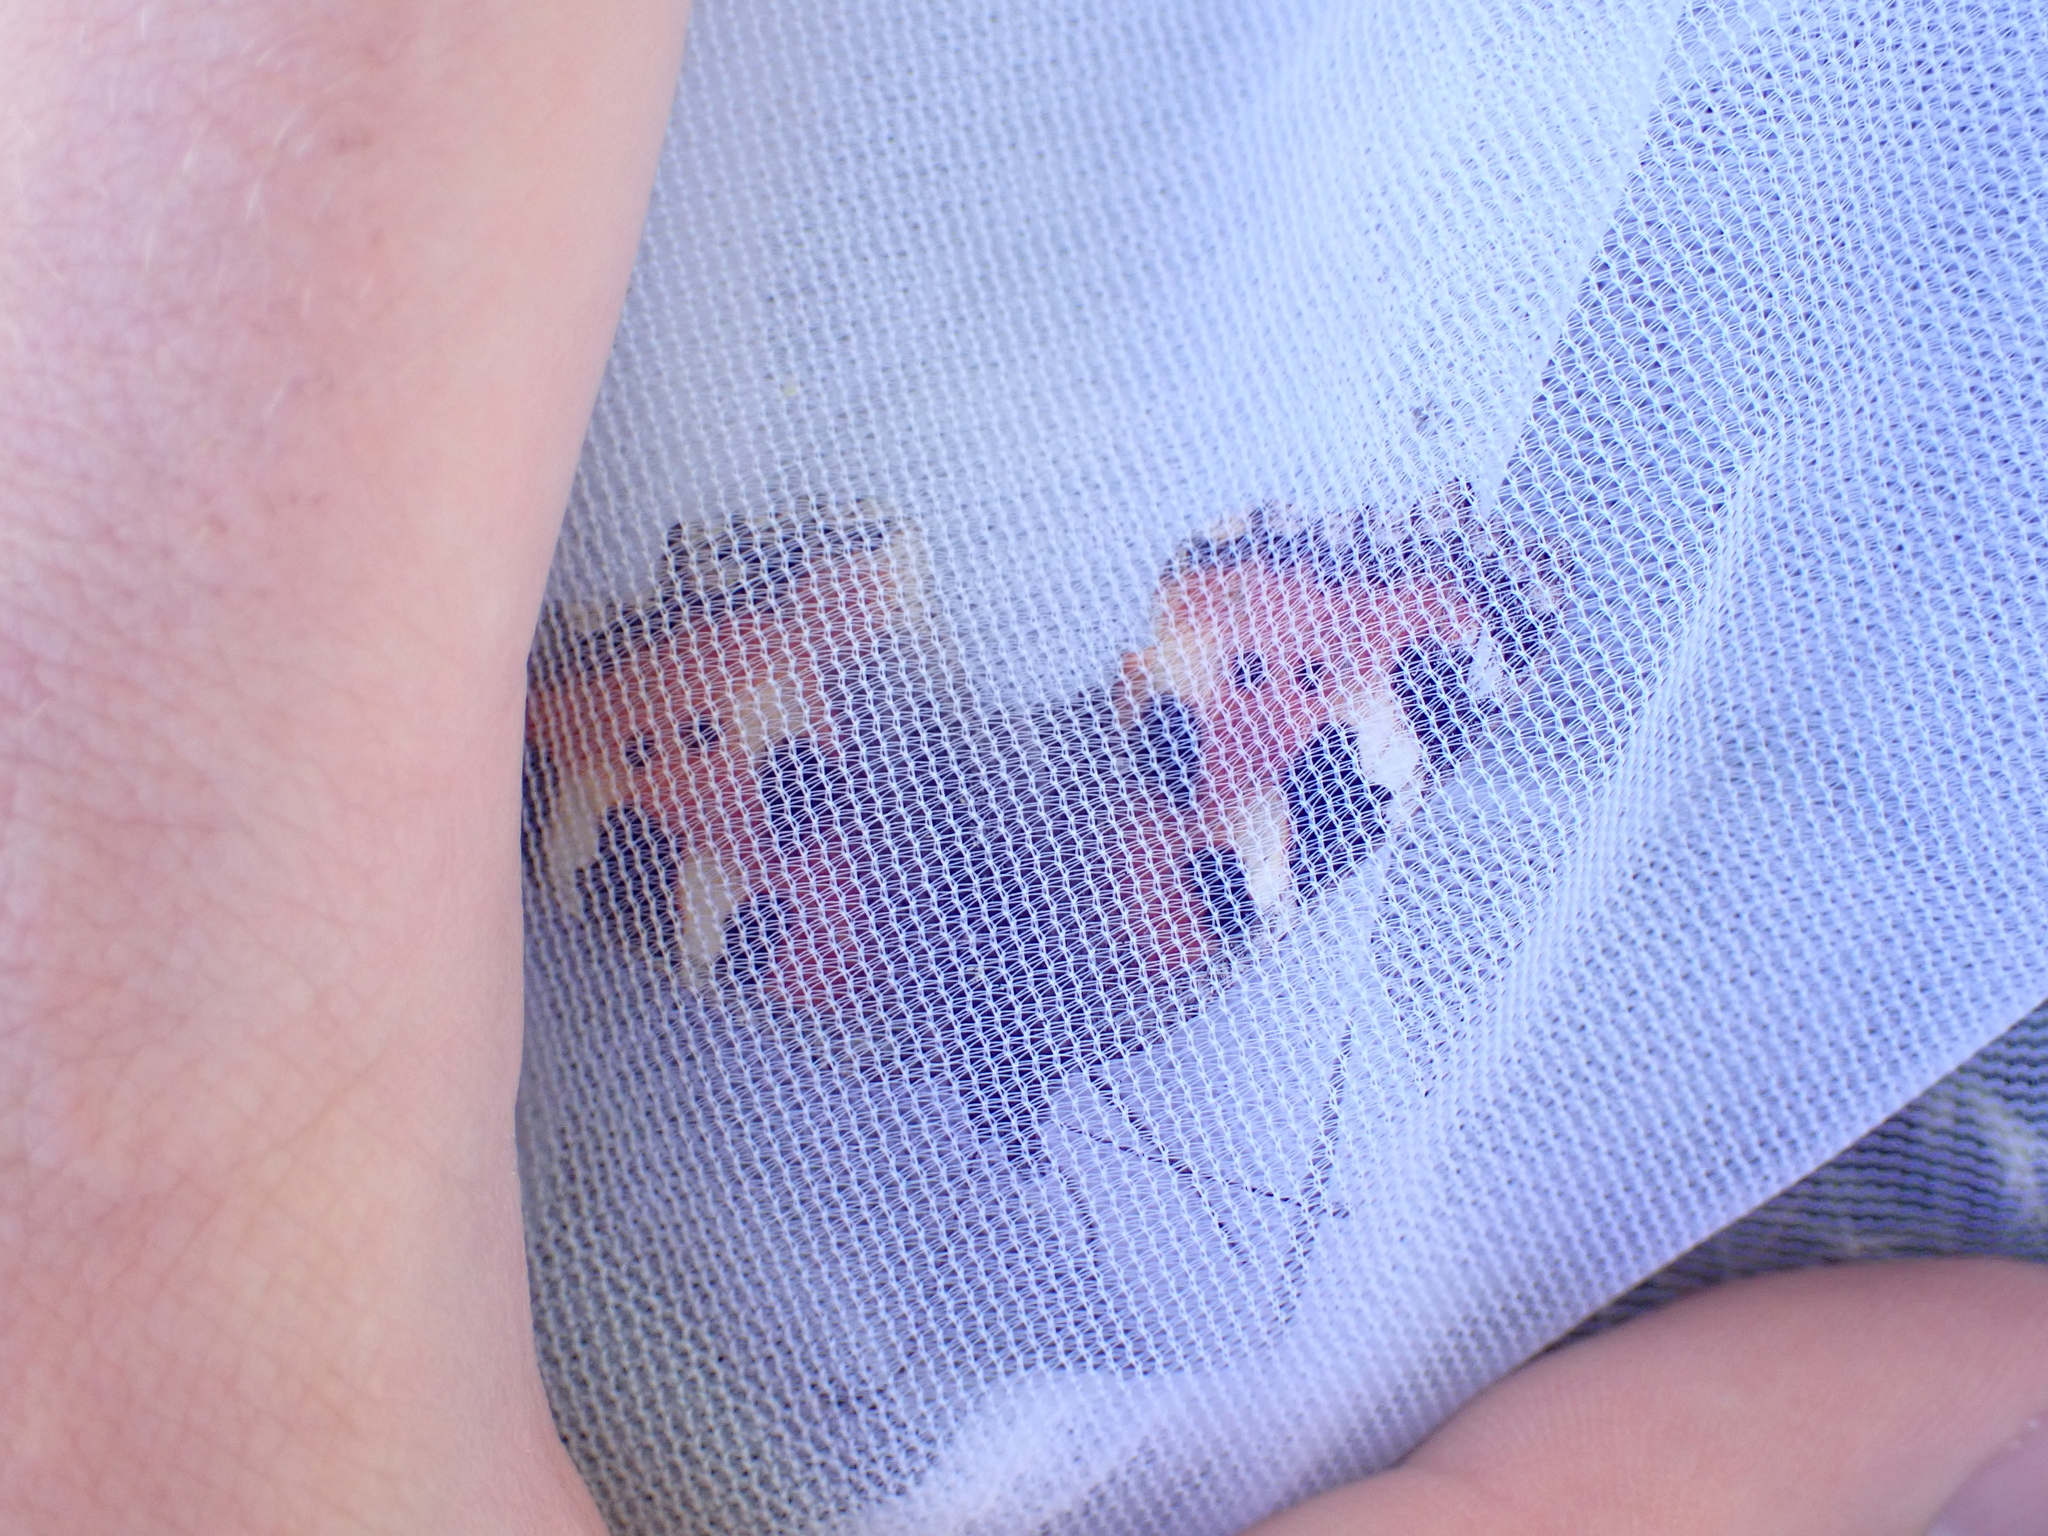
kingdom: Animalia
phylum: Arthropoda
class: Insecta
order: Lepidoptera
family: Nymphalidae
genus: Aglais
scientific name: Aglais urticae
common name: Small tortoiseshell
